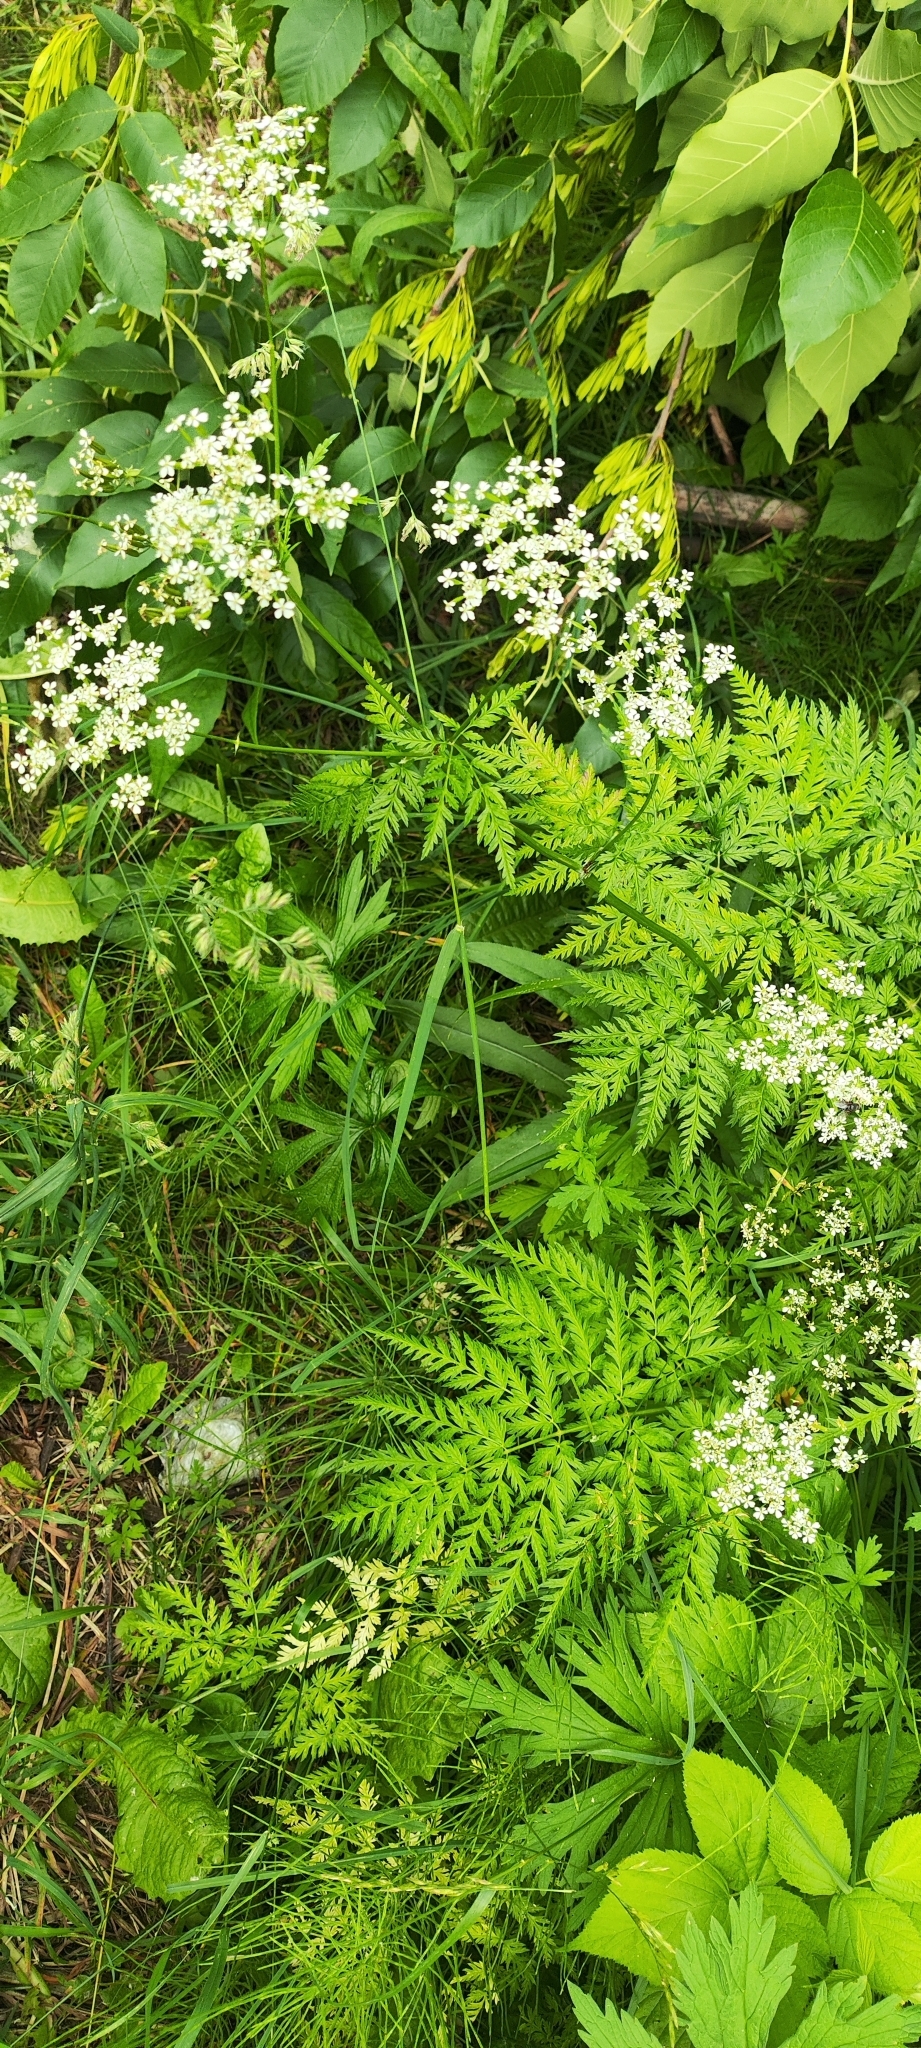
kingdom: Plantae
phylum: Tracheophyta
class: Magnoliopsida
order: Apiales
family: Apiaceae
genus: Anthriscus
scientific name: Anthriscus sylvestris
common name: Cow parsley
